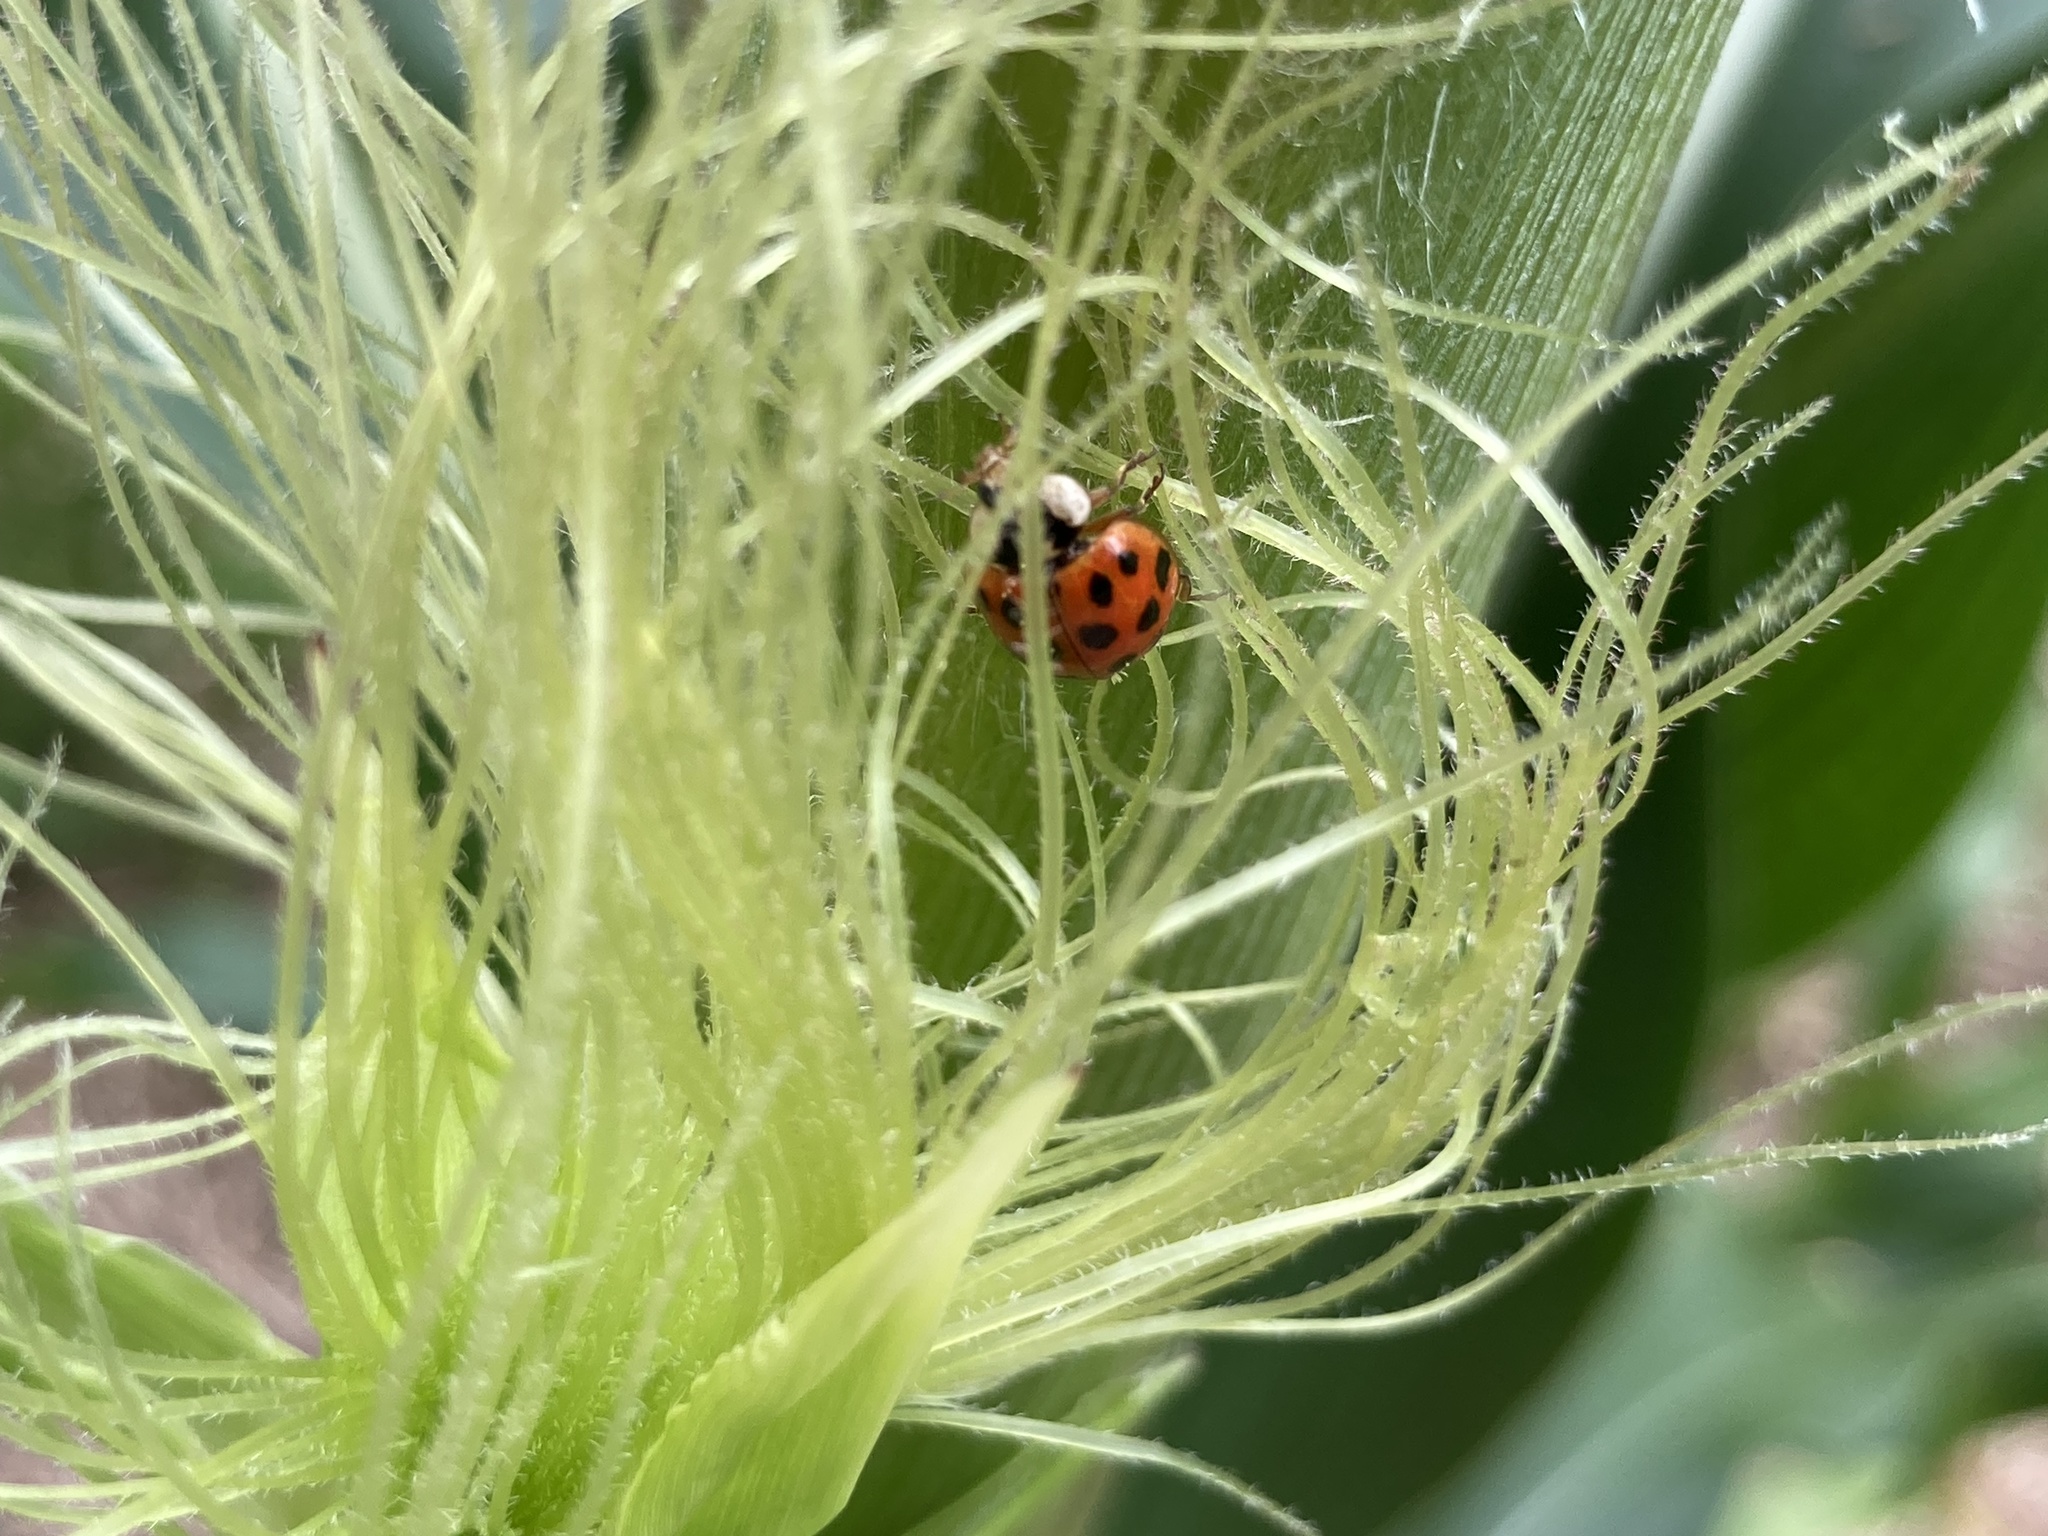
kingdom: Animalia
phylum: Arthropoda
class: Insecta
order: Coleoptera
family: Coccinellidae
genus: Harmonia
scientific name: Harmonia axyridis
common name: Harlequin ladybird
